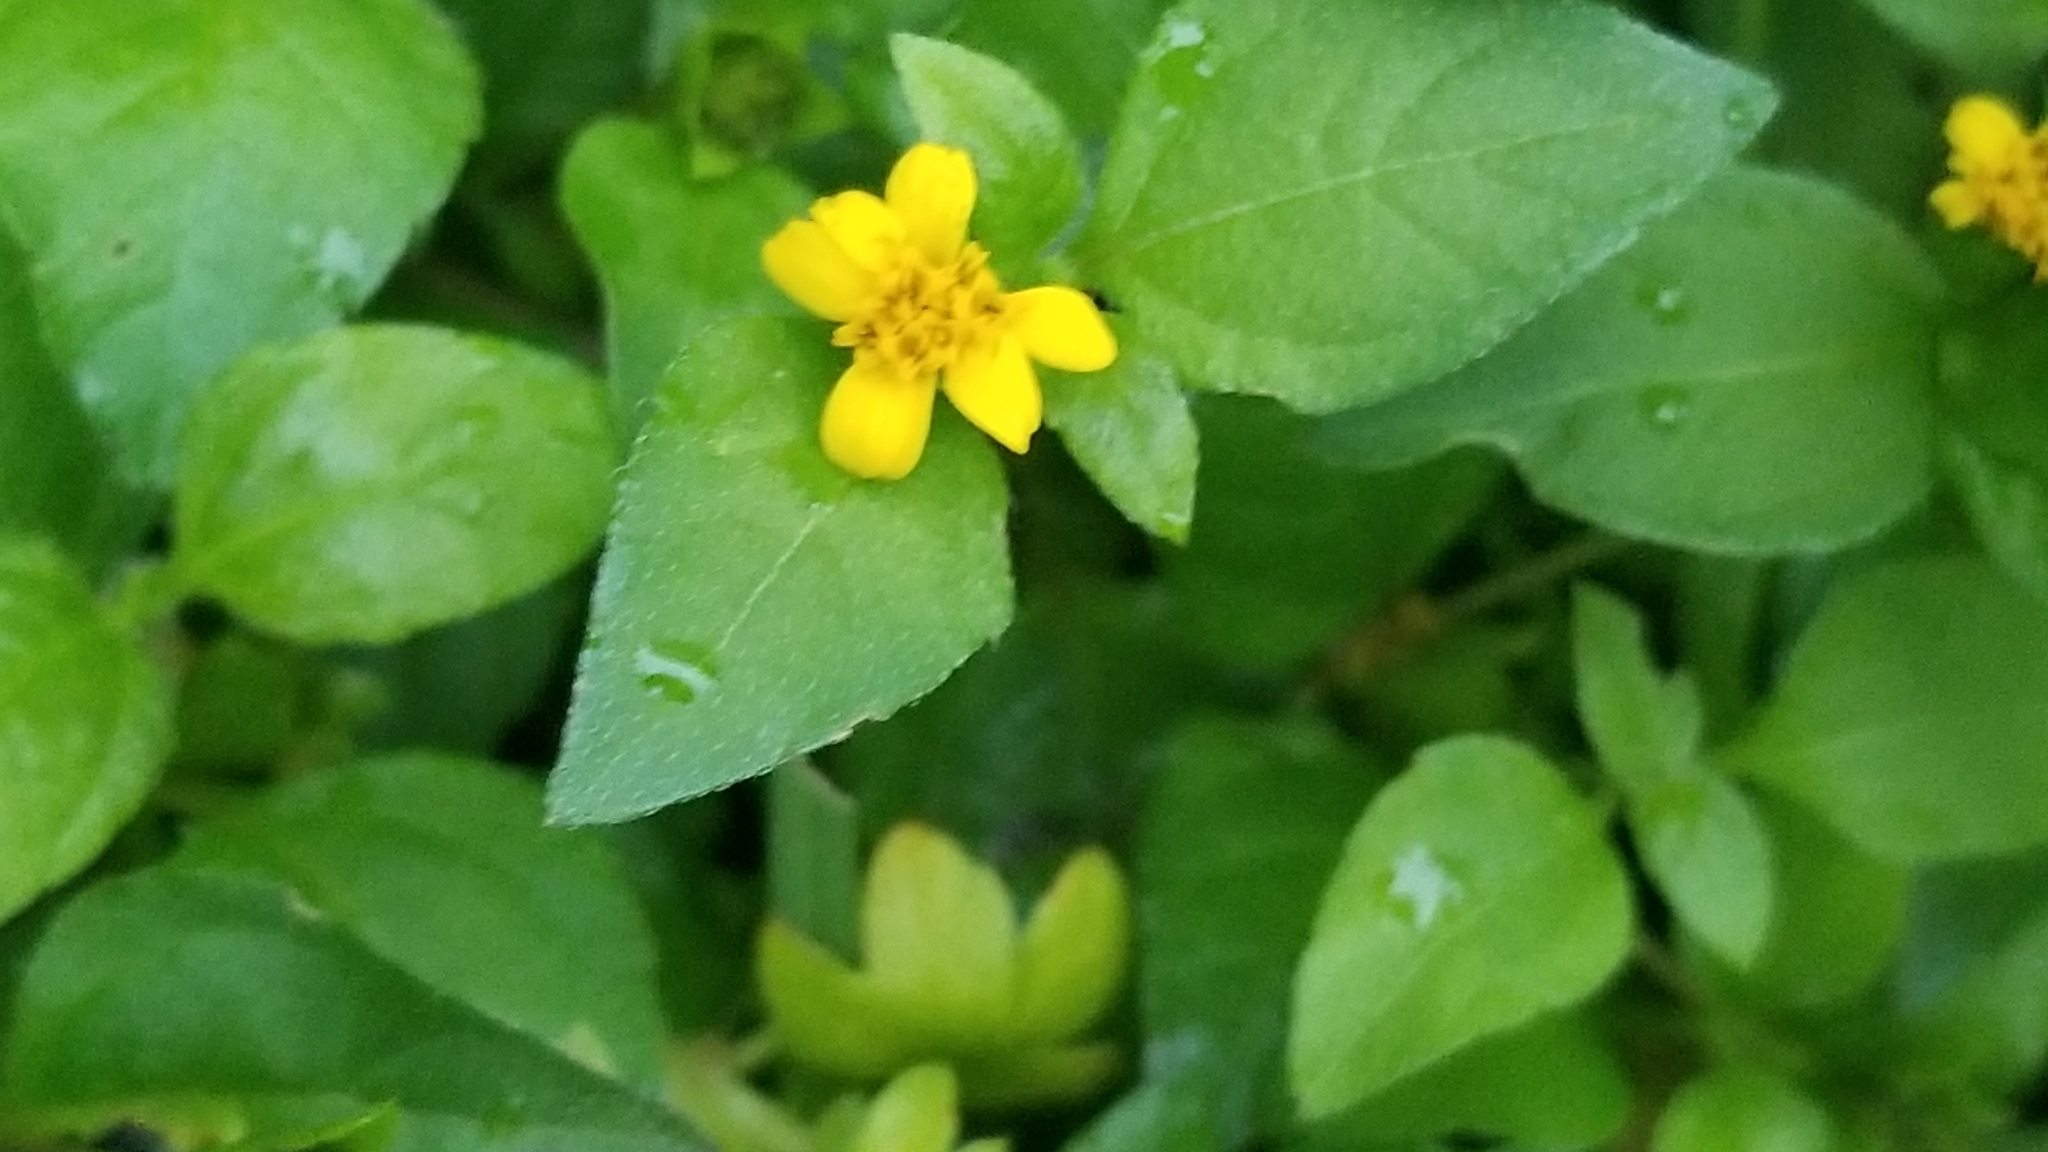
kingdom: Plantae
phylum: Tracheophyta
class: Magnoliopsida
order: Asterales
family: Asteraceae
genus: Calyptocarpus
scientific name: Calyptocarpus vialis
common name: Straggler daisy
